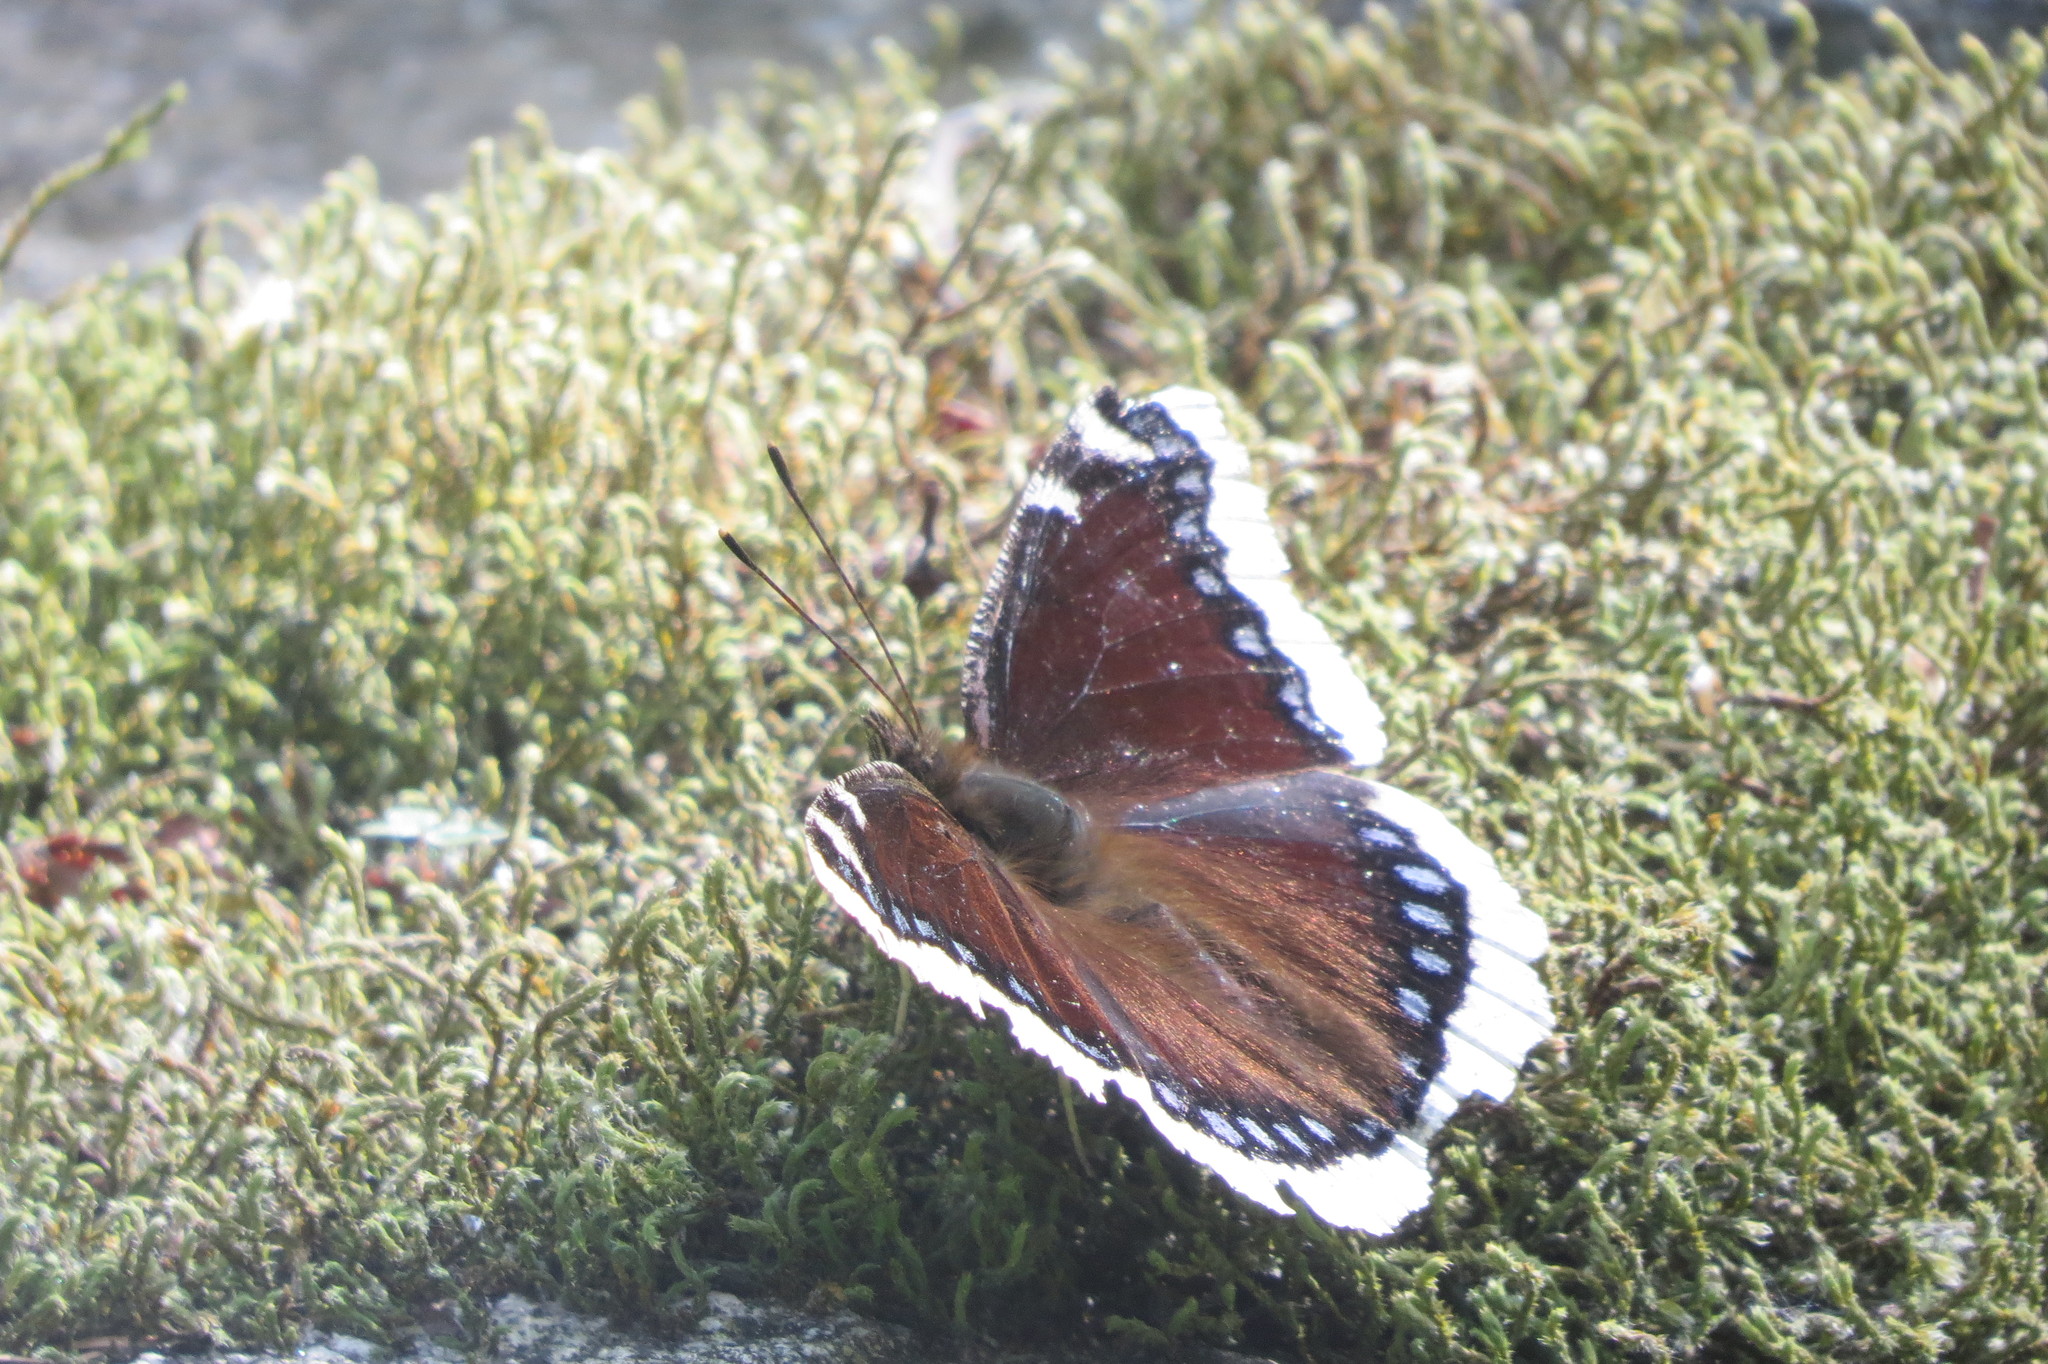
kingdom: Animalia
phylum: Arthropoda
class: Insecta
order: Lepidoptera
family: Nymphalidae
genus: Nymphalis
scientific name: Nymphalis antiopa
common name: Camberwell beauty
